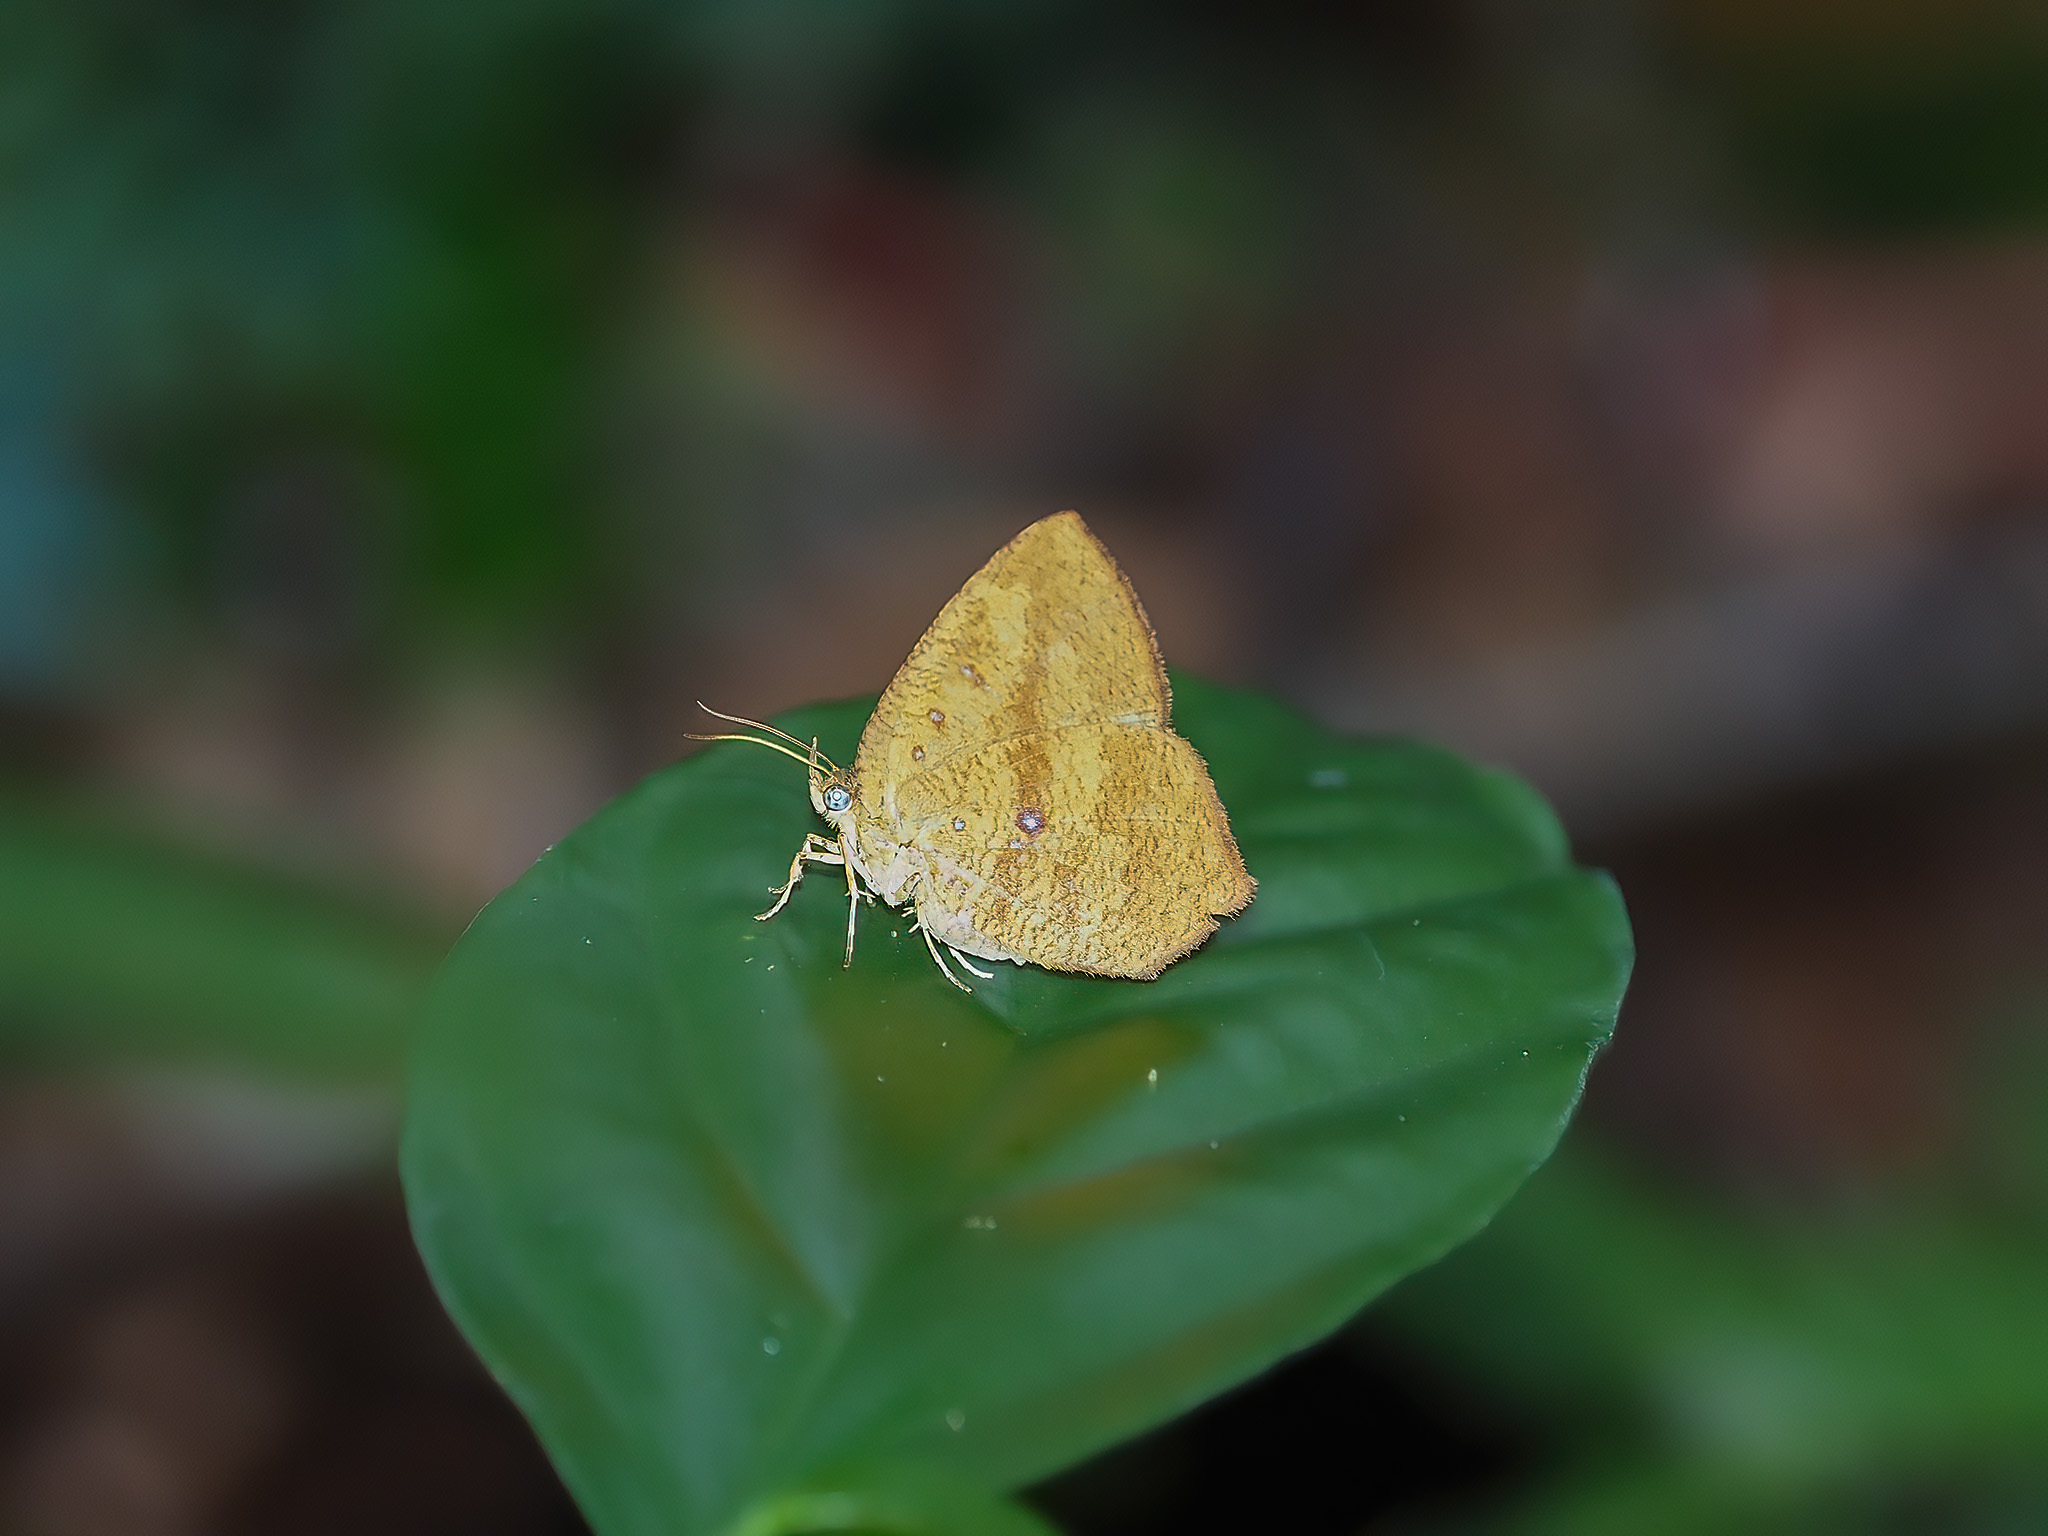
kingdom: Animalia
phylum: Arthropoda
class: Insecta
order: Lepidoptera
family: Callidulidae
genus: Tetragonus
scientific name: Tetragonus catamitus
